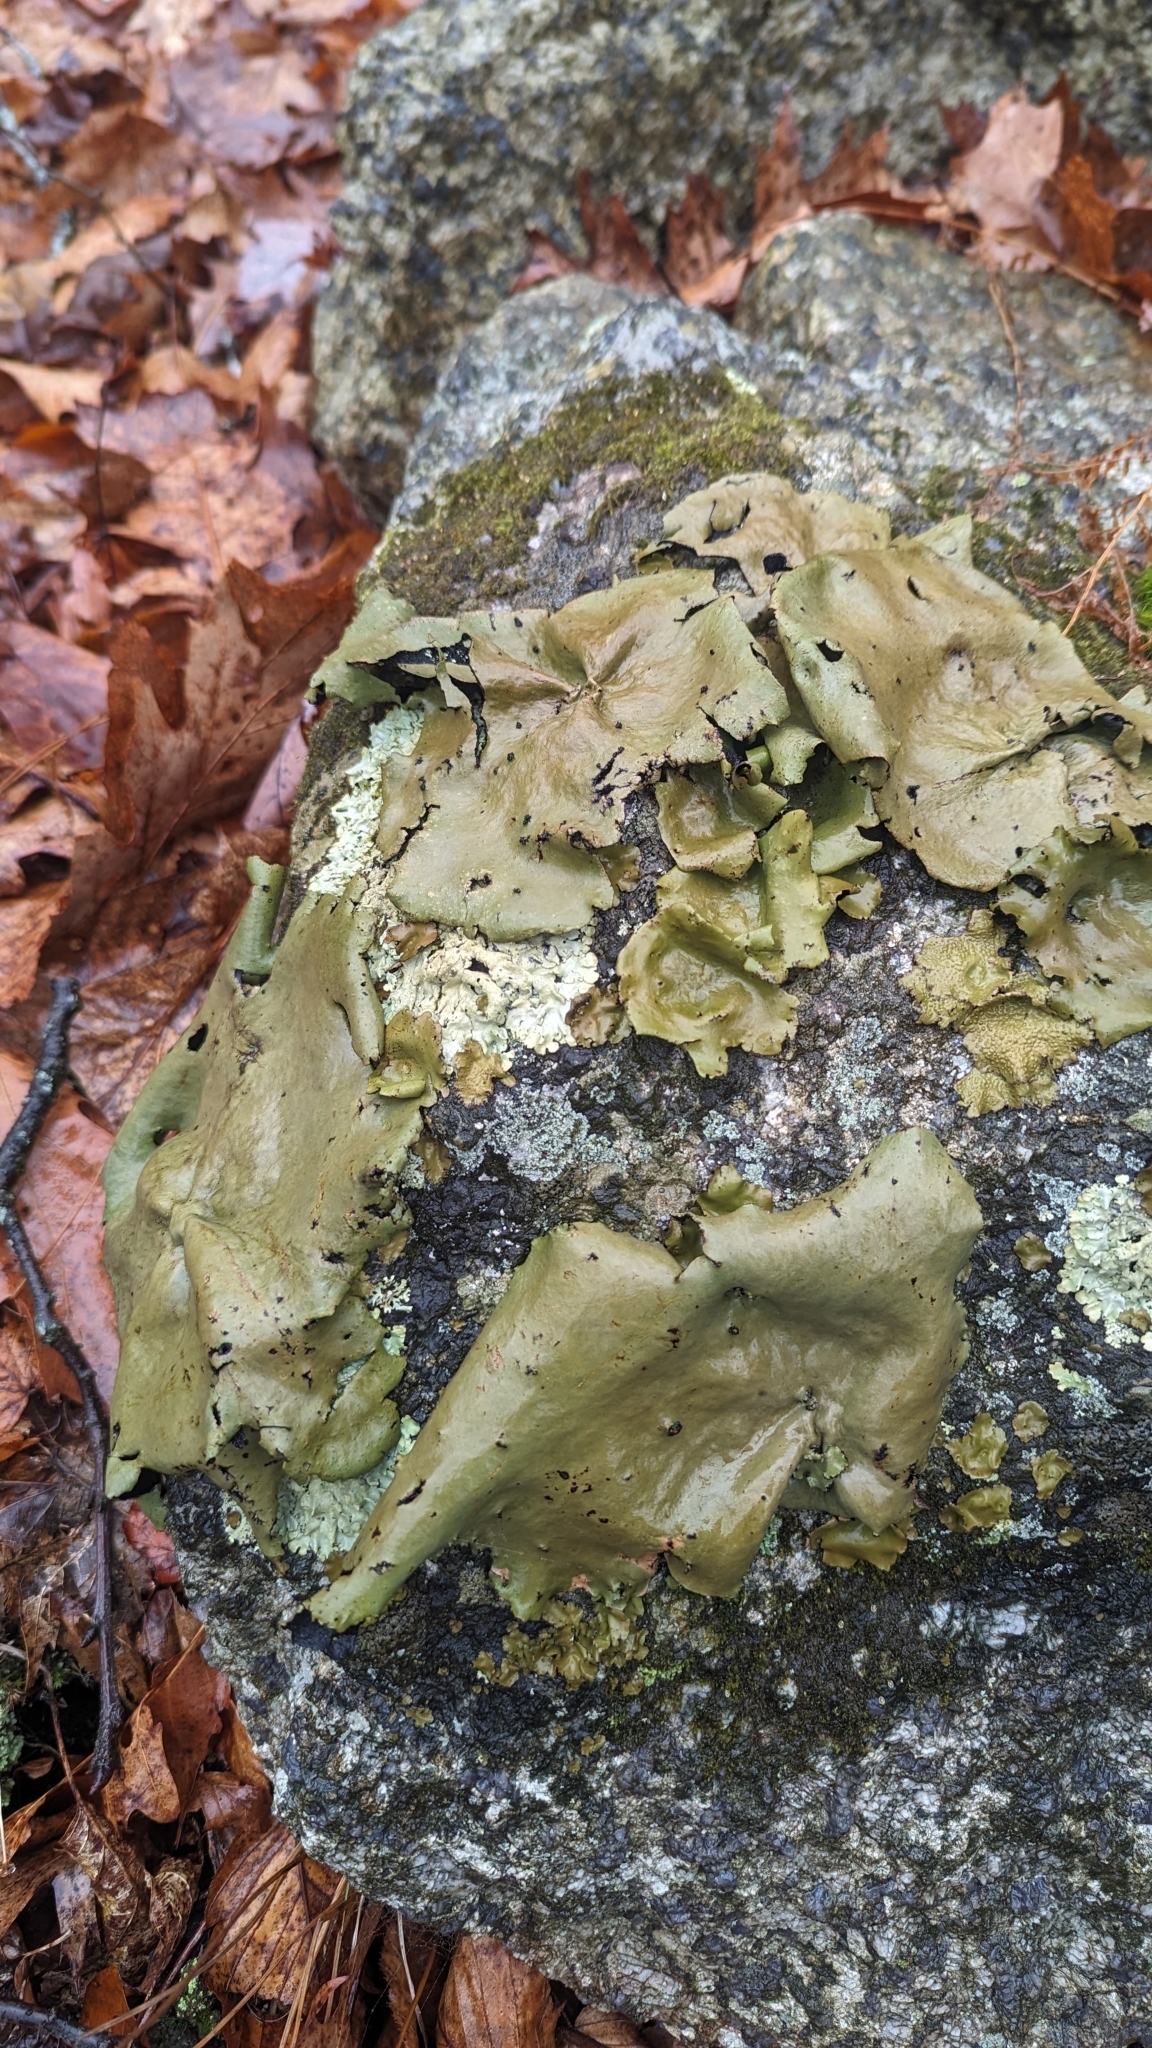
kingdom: Fungi
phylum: Ascomycota
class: Lecanoromycetes
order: Umbilicariales
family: Umbilicariaceae
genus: Umbilicaria
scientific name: Umbilicaria mammulata
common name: Smooth rock tripe
